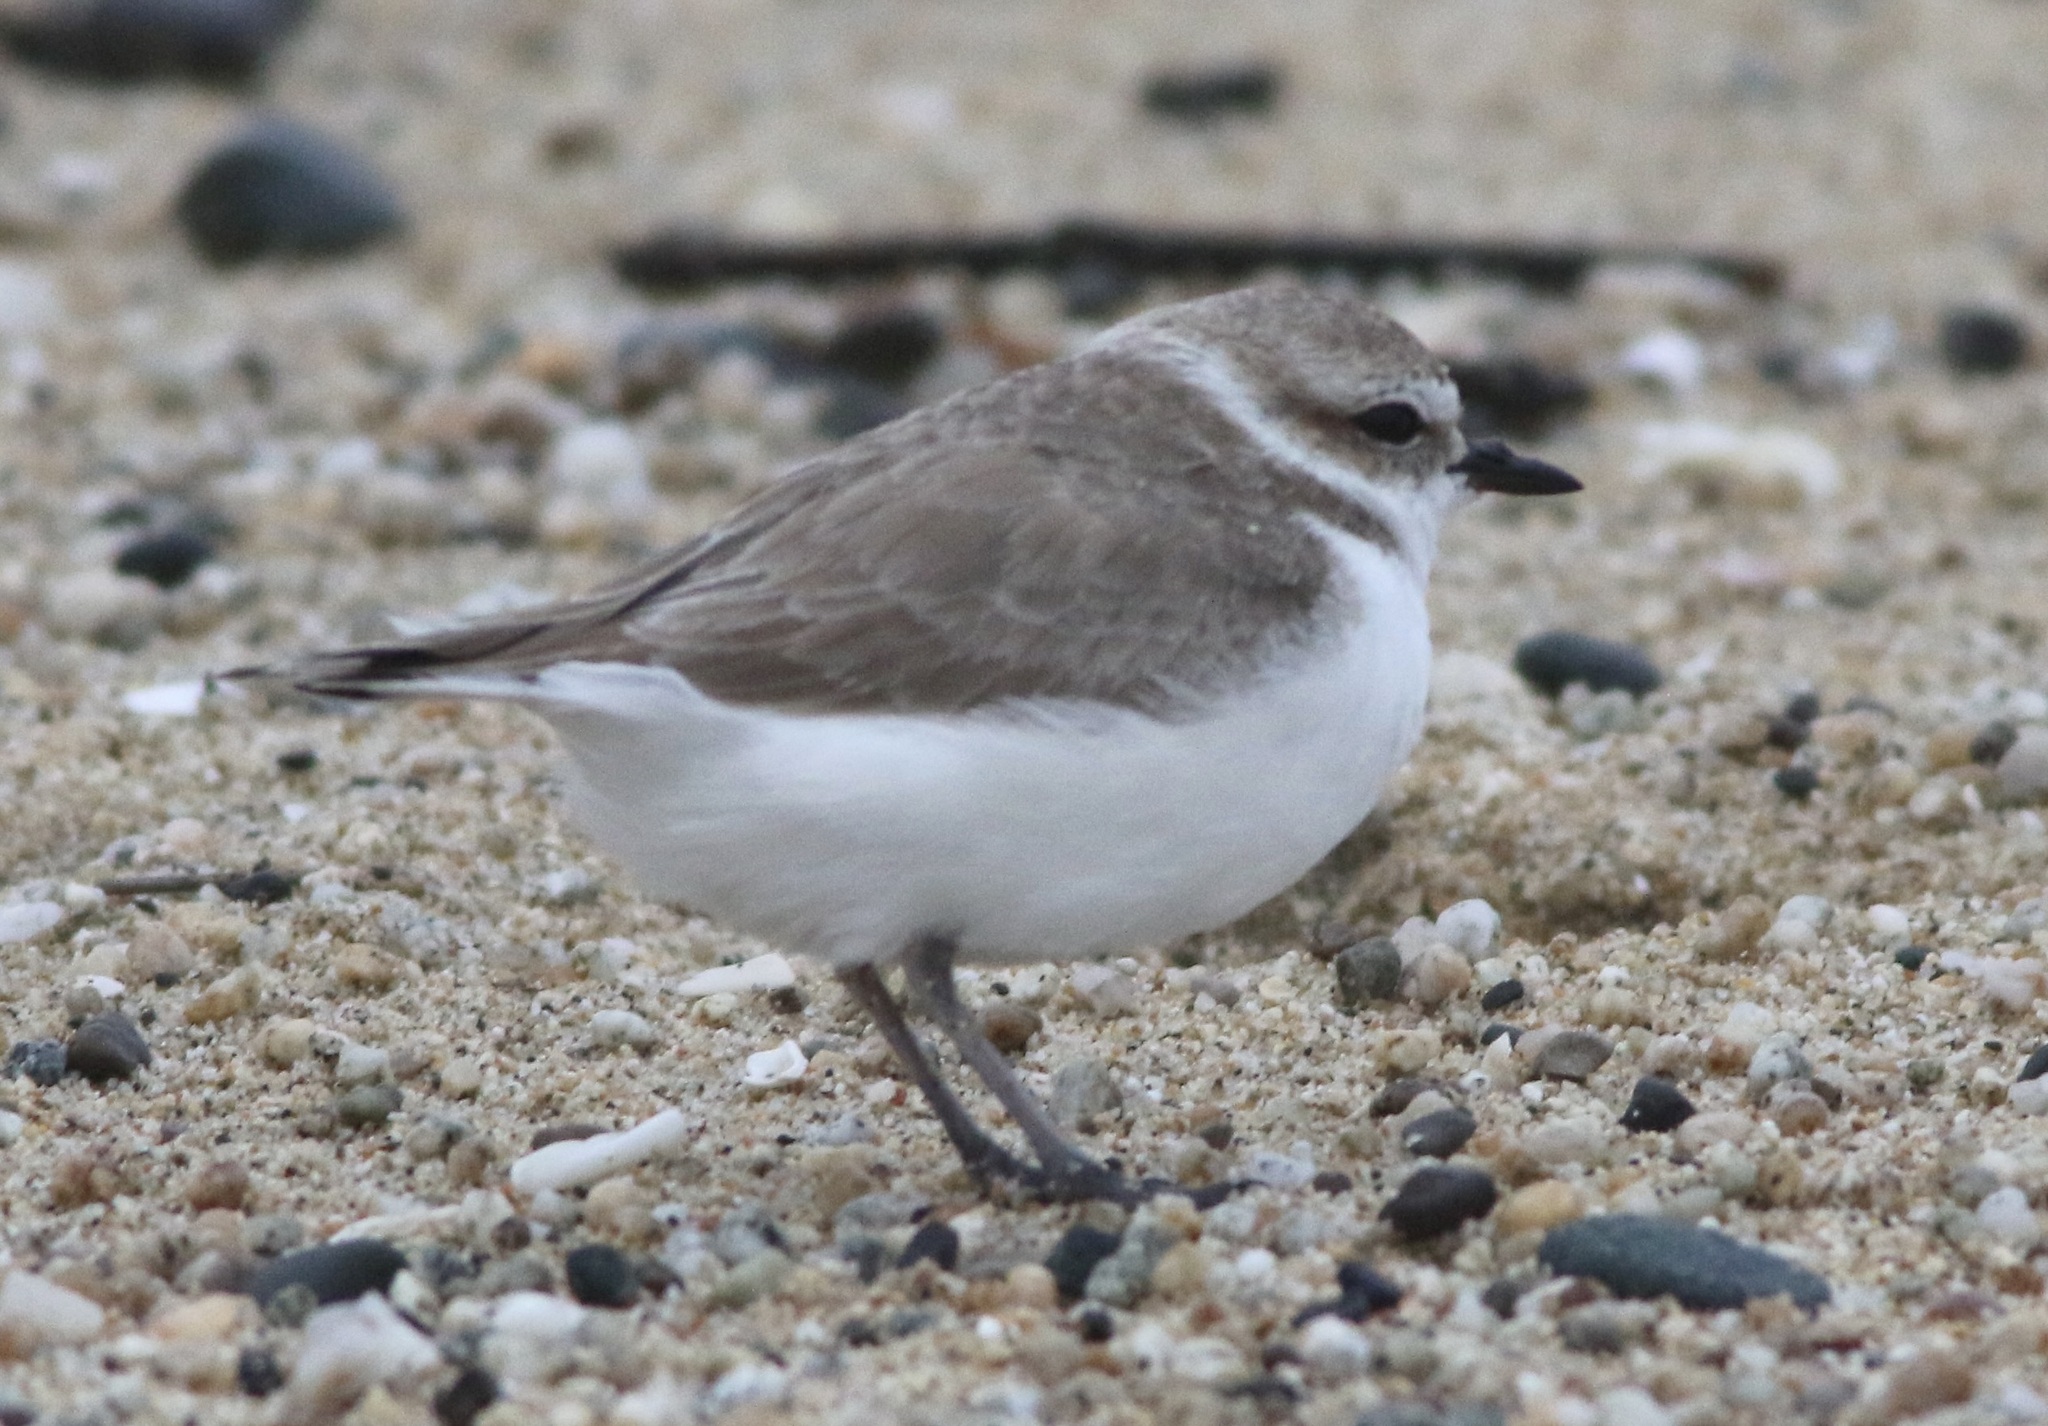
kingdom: Animalia
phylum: Chordata
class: Aves
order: Charadriiformes
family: Charadriidae
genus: Anarhynchus
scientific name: Anarhynchus
